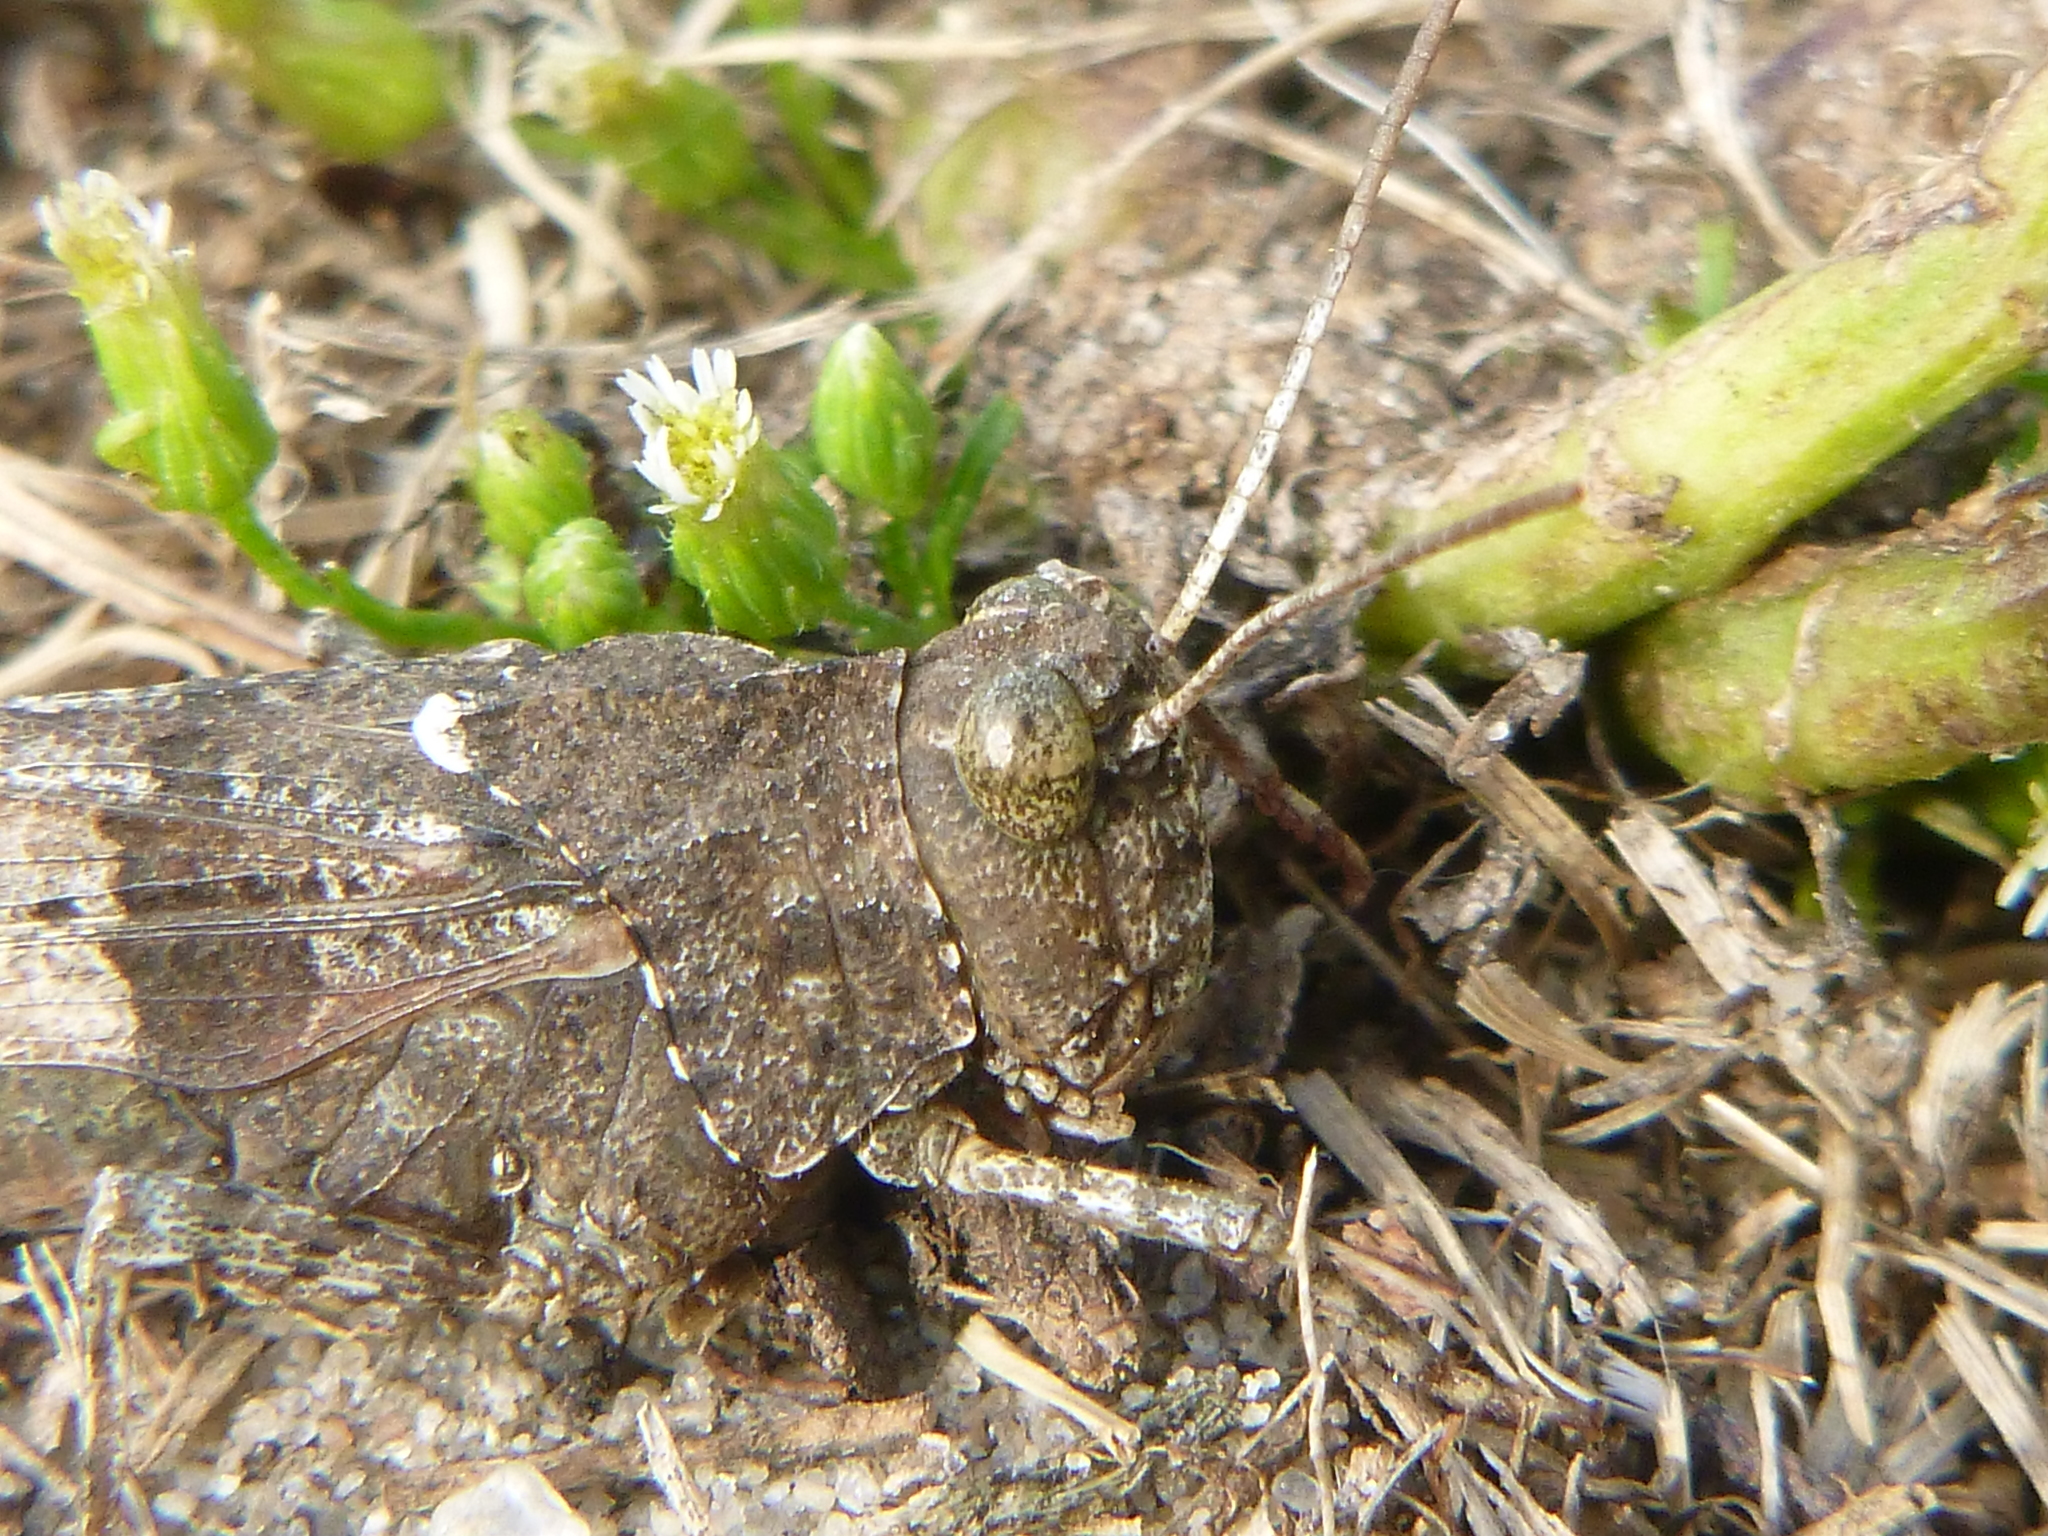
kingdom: Animalia
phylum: Arthropoda
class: Insecta
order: Orthoptera
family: Acrididae
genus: Oedipoda
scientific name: Oedipoda caerulescens
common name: Blue-winged grasshopper
